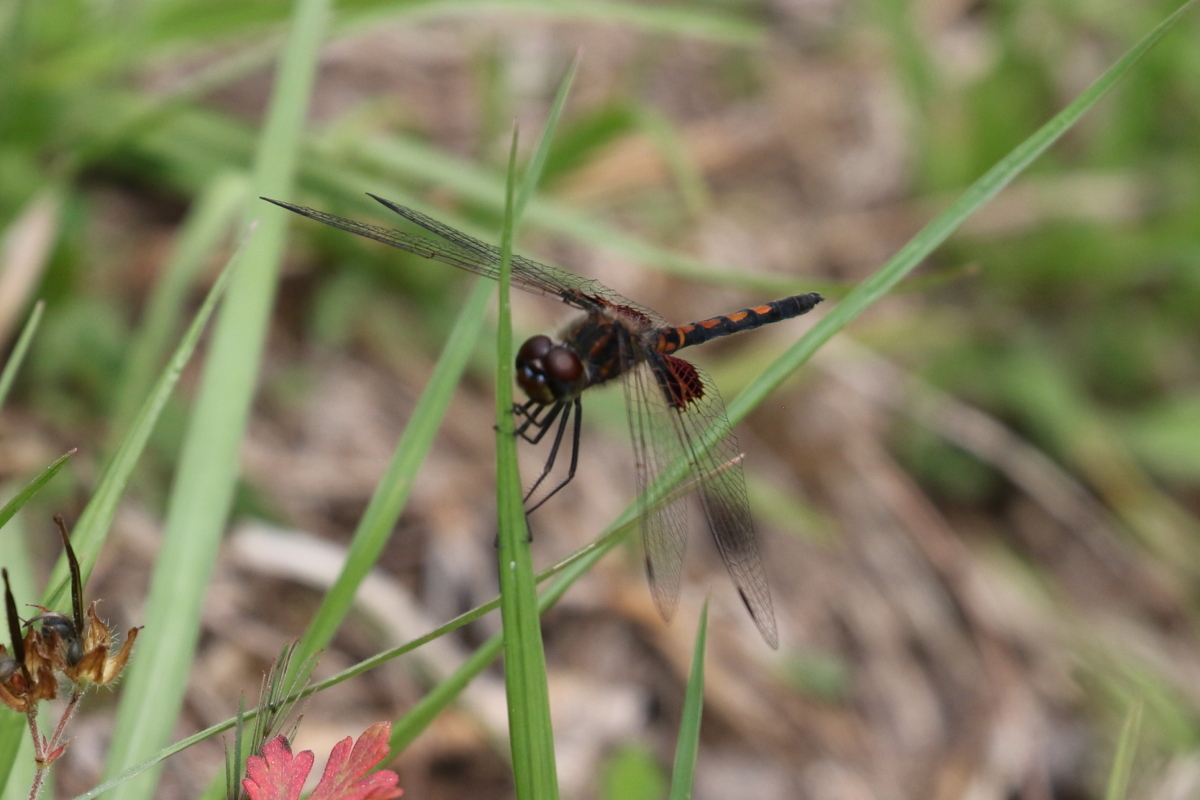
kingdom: Animalia
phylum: Arthropoda
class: Insecta
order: Odonata
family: Libellulidae
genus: Celithemis
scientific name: Celithemis ornata
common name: Ornate pennant
